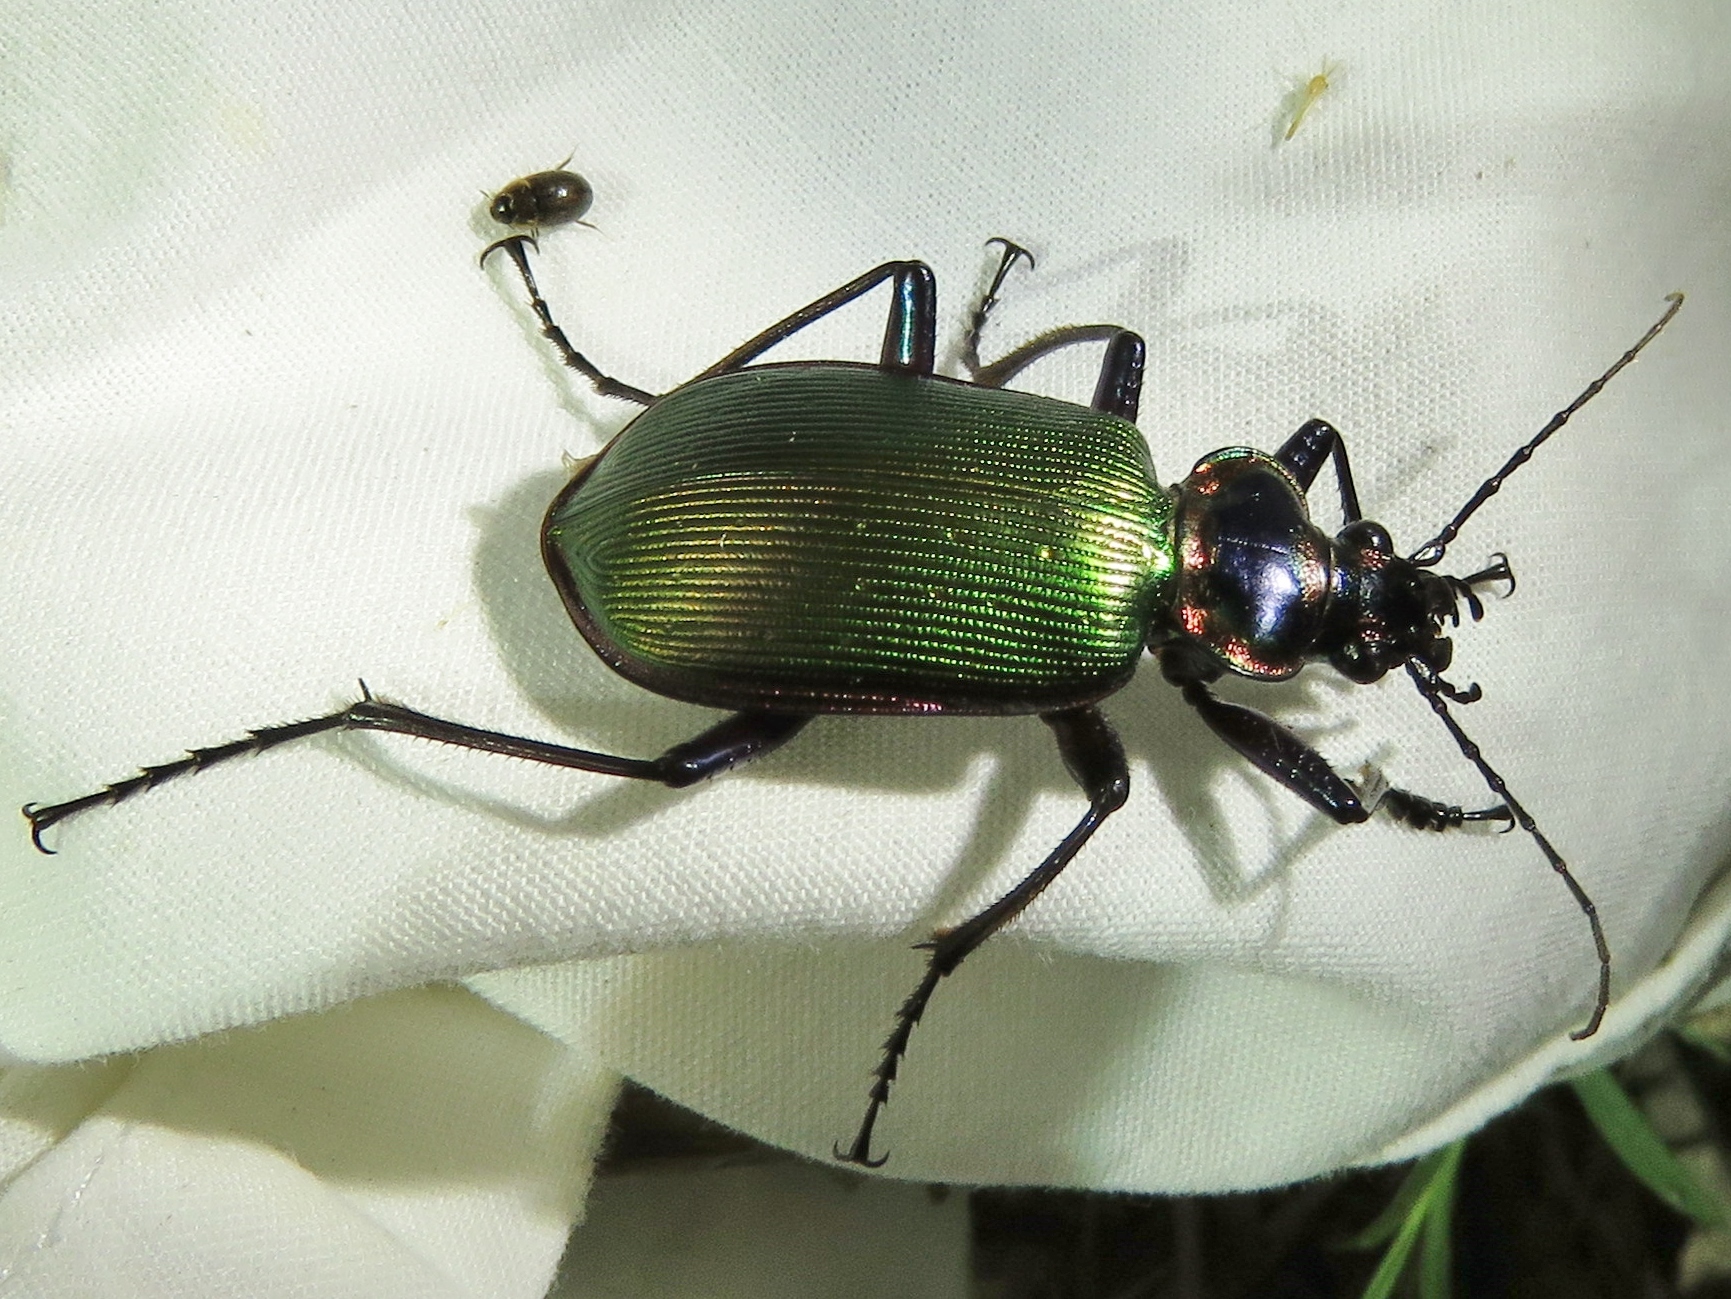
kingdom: Animalia
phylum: Arthropoda
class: Insecta
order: Coleoptera
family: Carabidae
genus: Calosoma
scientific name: Calosoma scrutator
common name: Fiery searcher beetle
